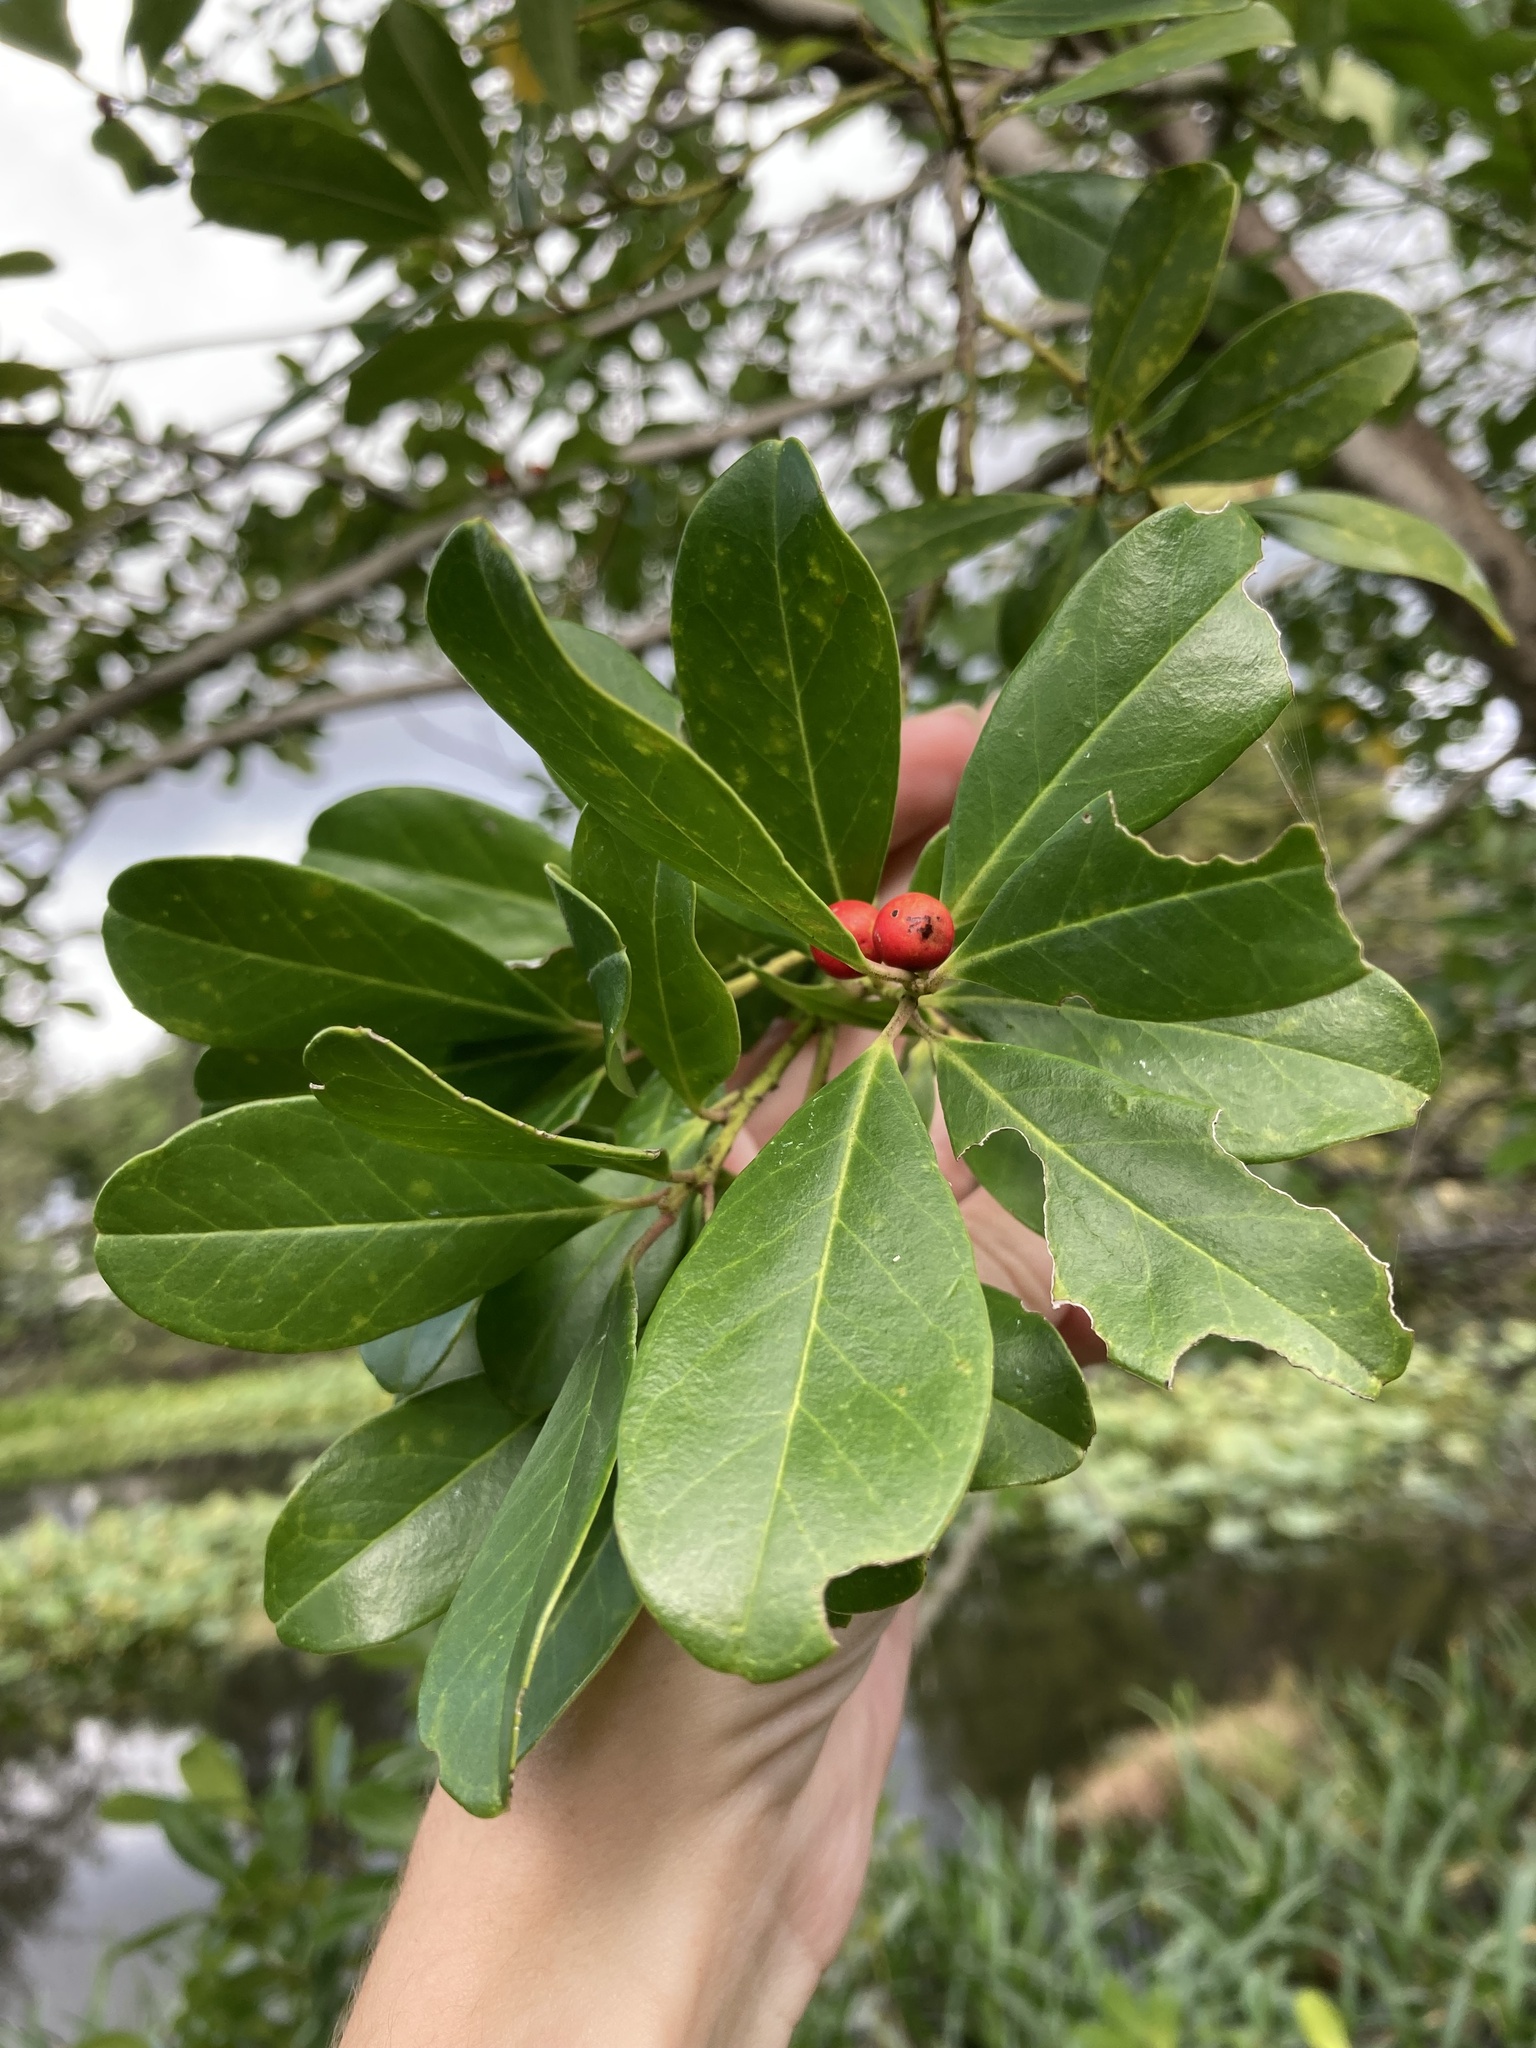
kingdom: Plantae
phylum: Tracheophyta
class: Magnoliopsida
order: Aquifoliales
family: Aquifoliaceae
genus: Ilex
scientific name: Ilex cassine
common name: Dahoon
